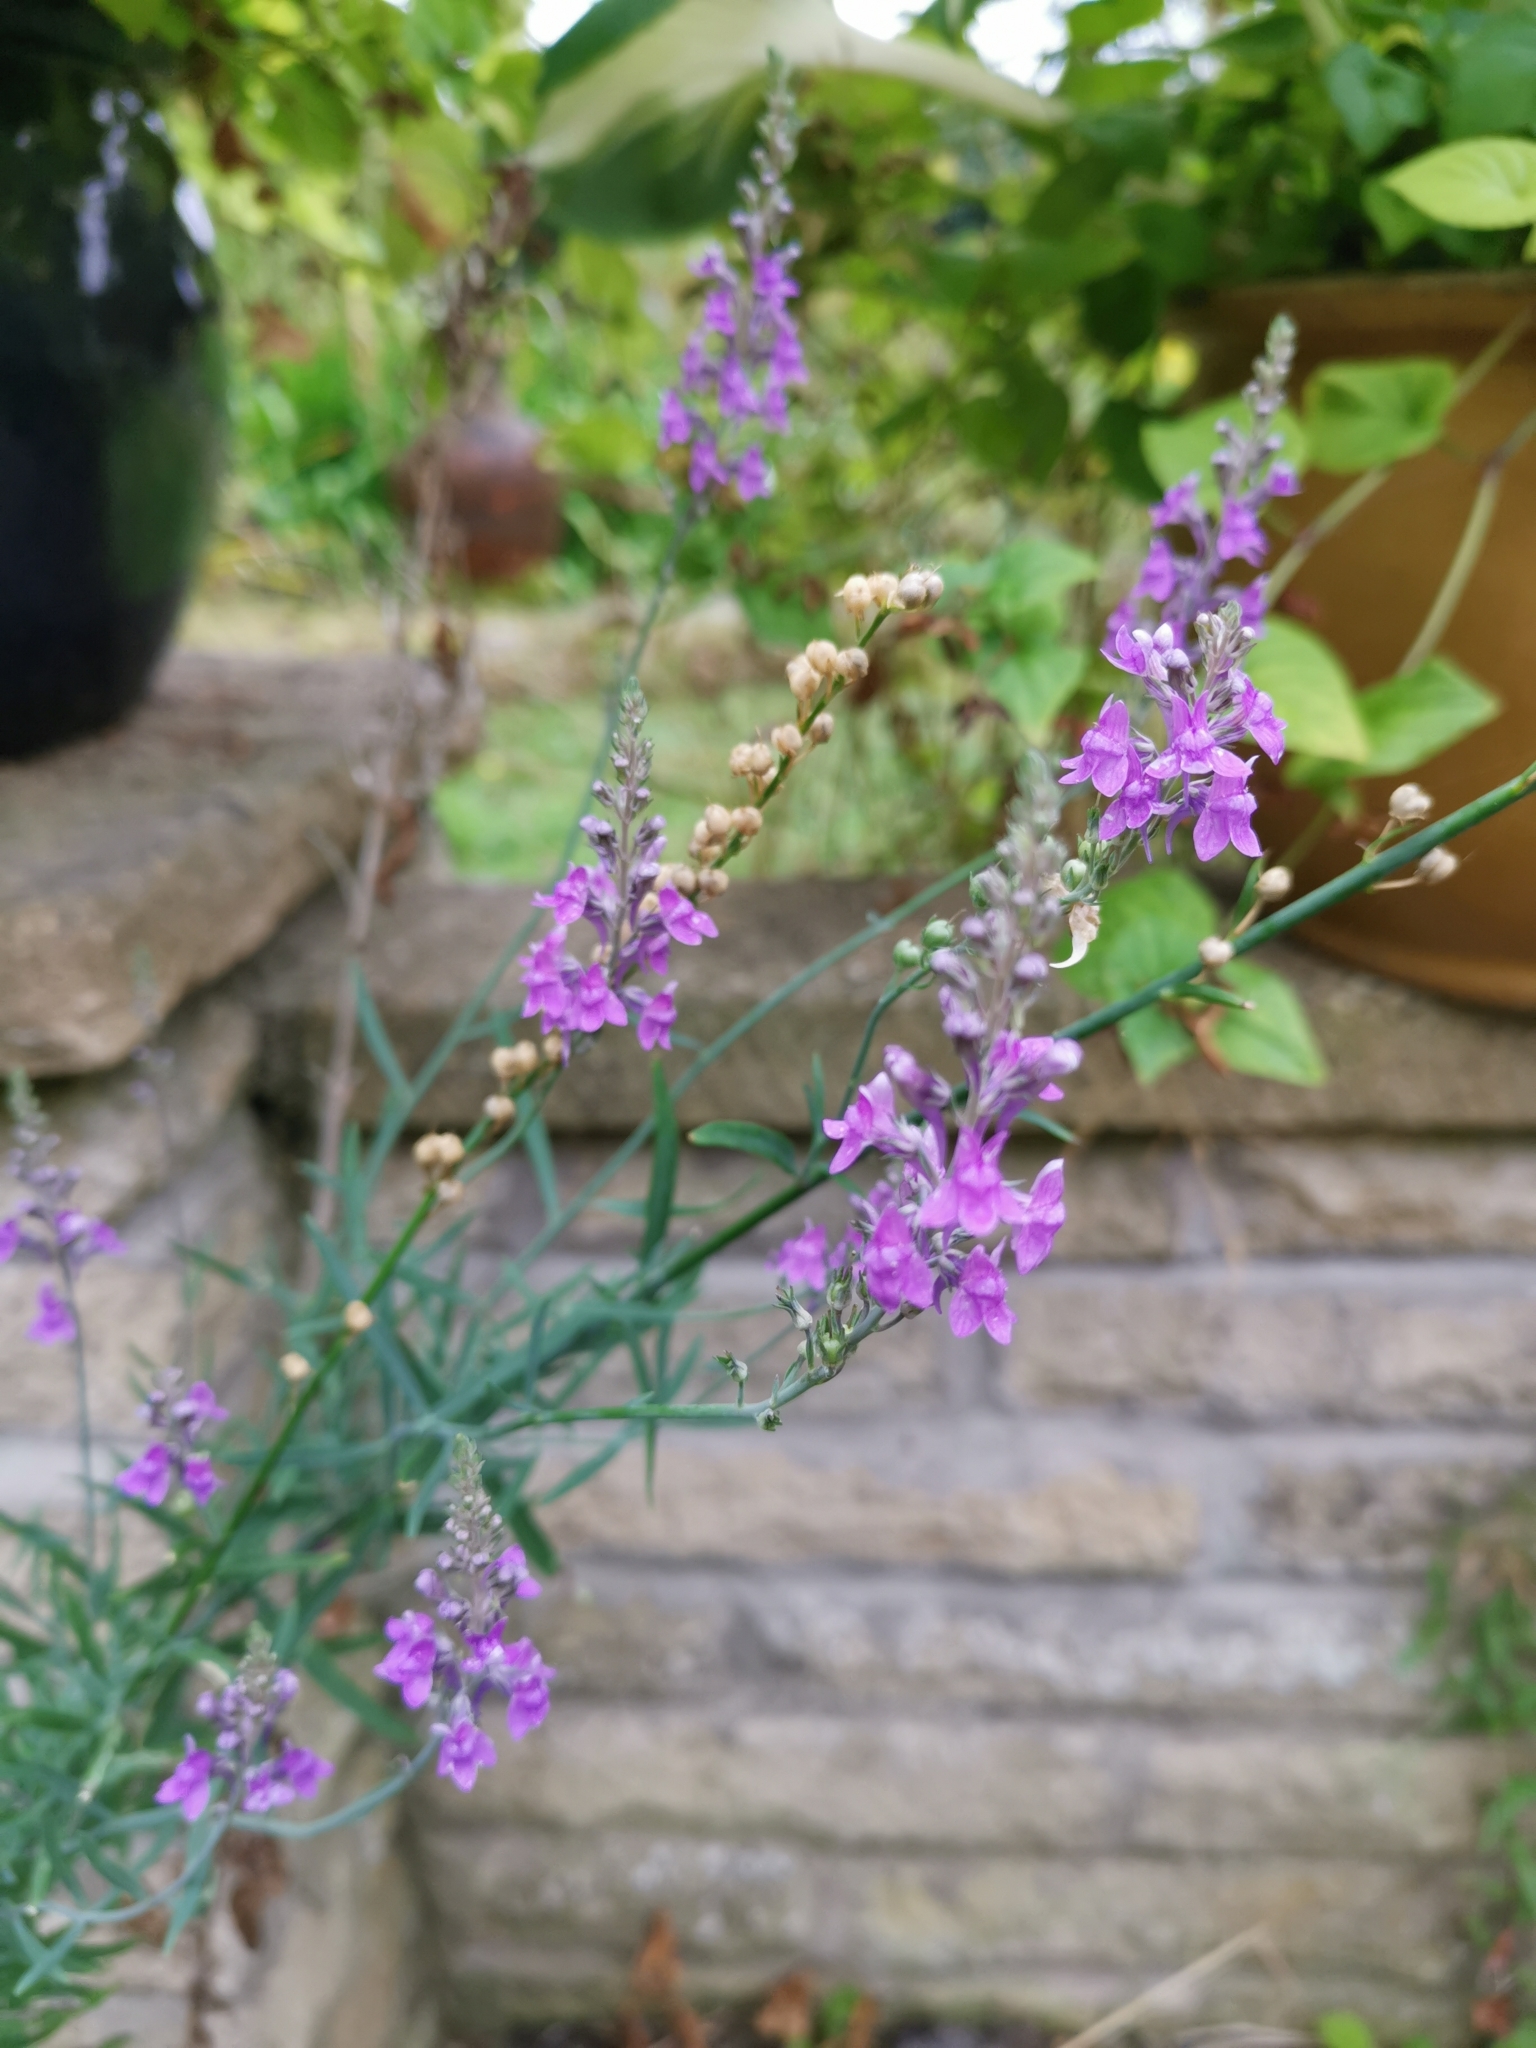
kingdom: Plantae
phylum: Tracheophyta
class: Magnoliopsida
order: Lamiales
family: Plantaginaceae
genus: Linaria
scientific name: Linaria purpurea
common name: Purple toadflax
